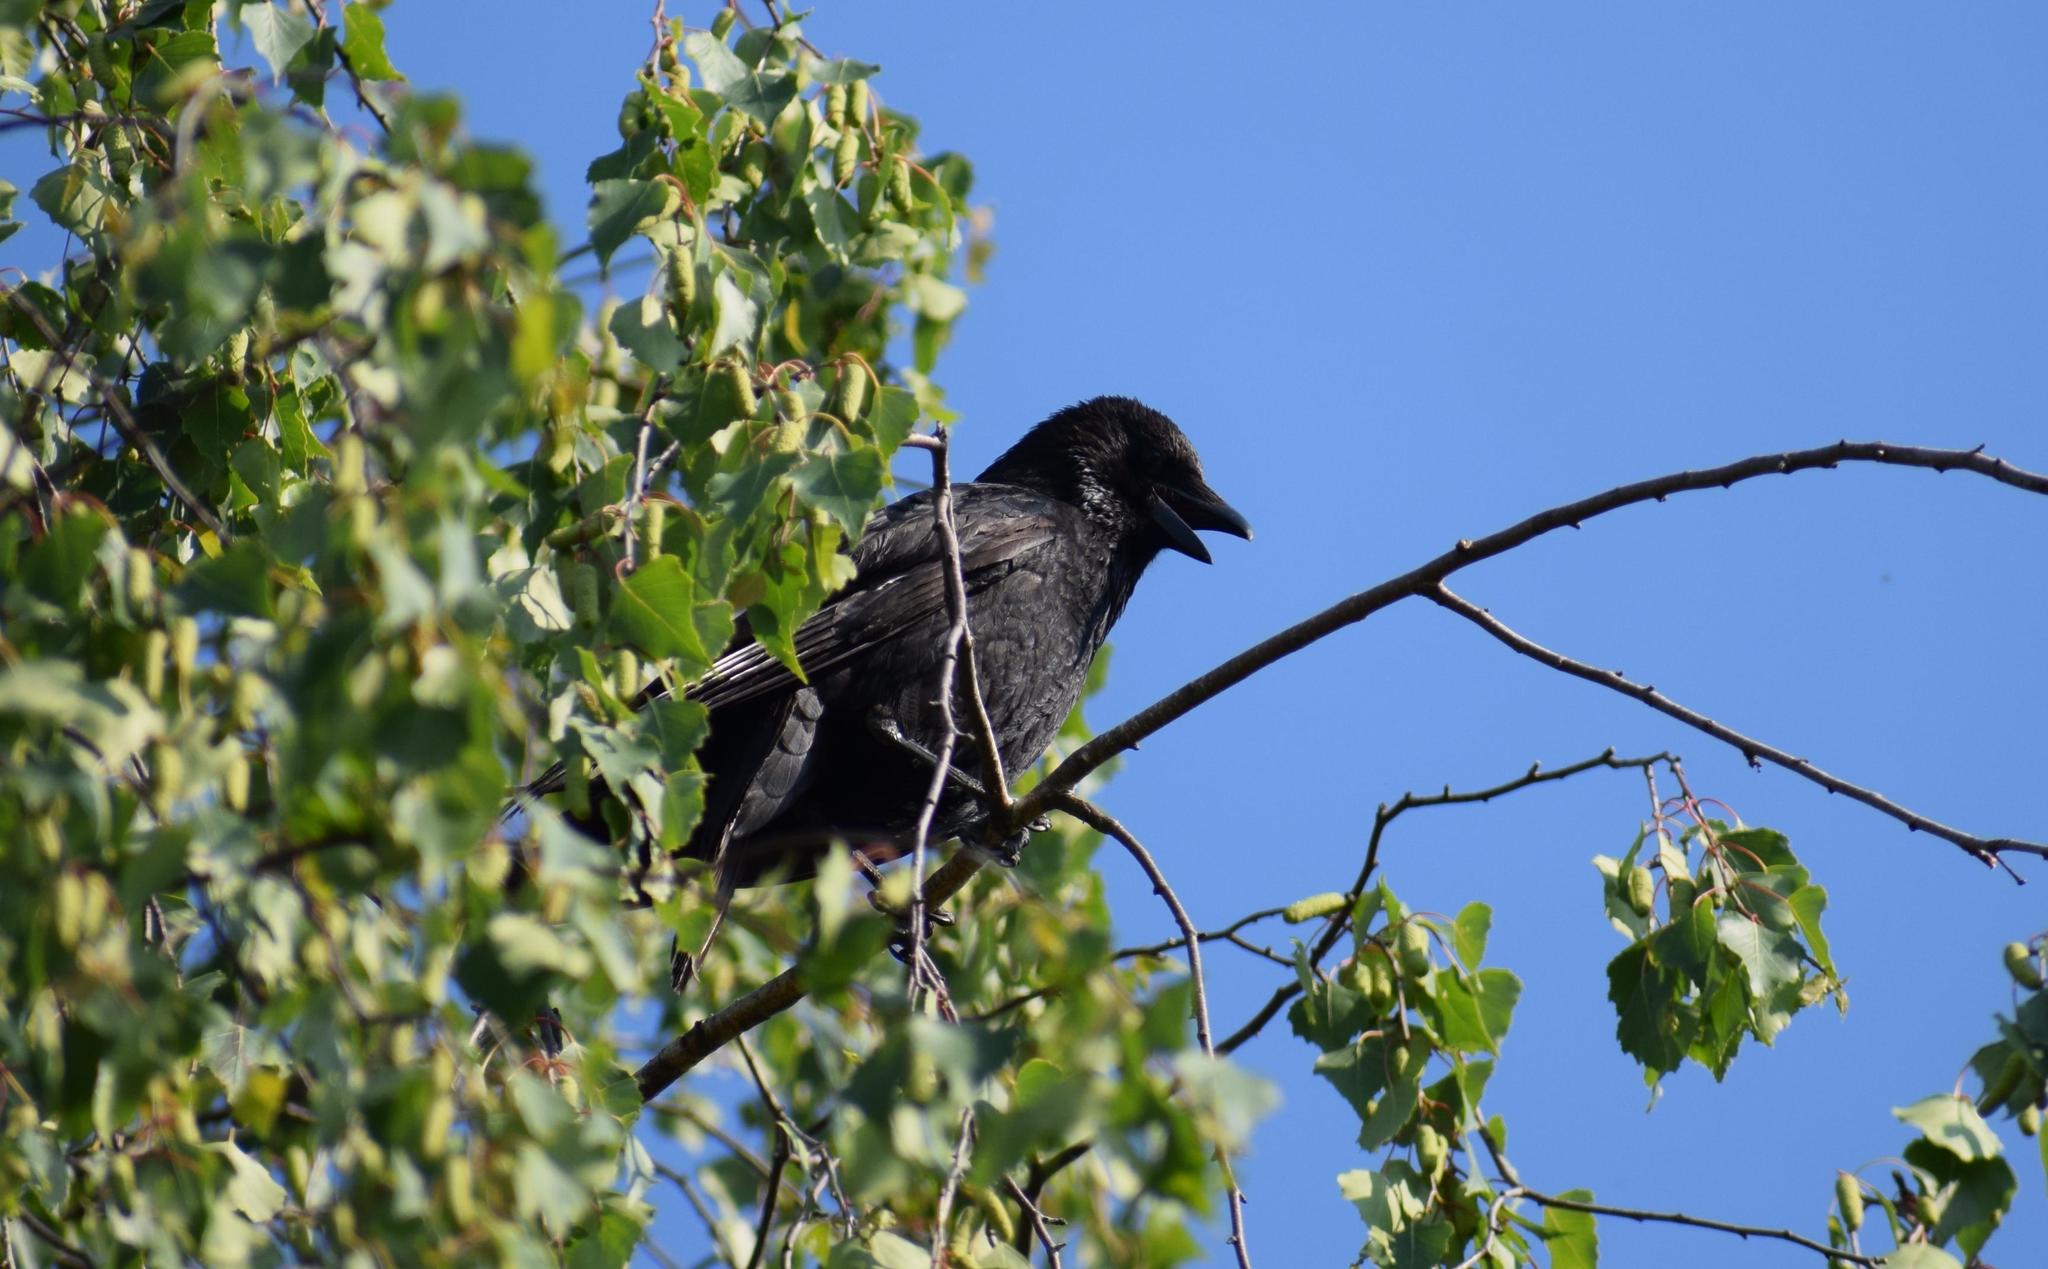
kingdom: Animalia
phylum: Chordata
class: Aves
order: Passeriformes
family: Corvidae
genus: Corvus
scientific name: Corvus corone
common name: Carrion crow
